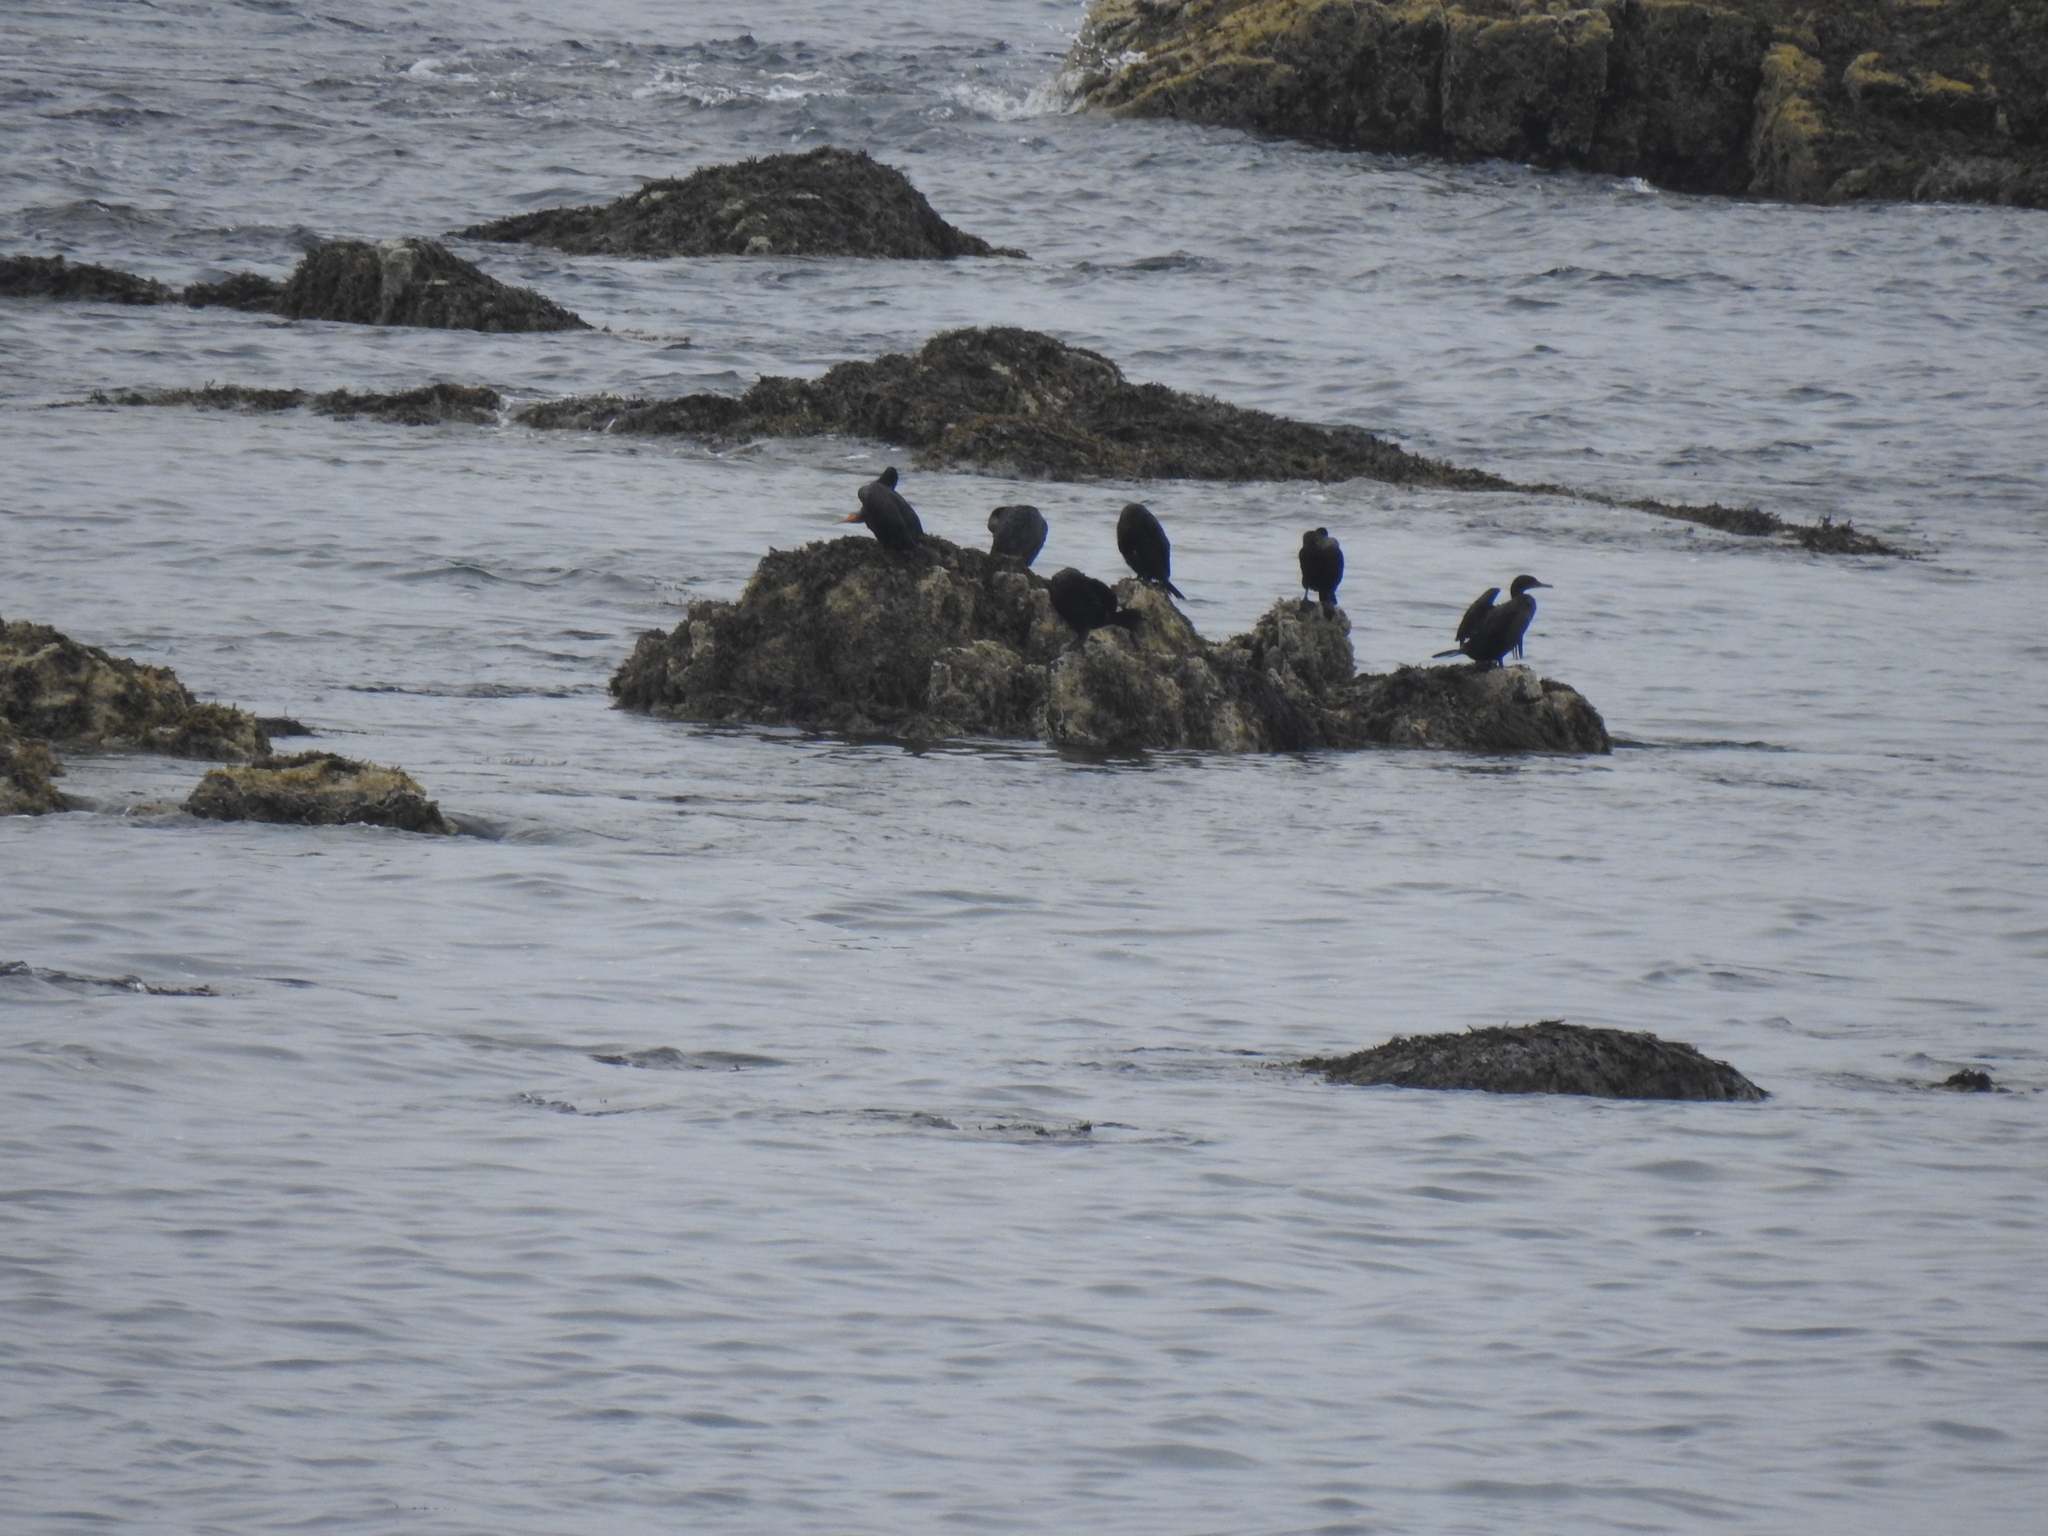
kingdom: Animalia
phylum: Chordata
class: Aves
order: Suliformes
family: Phalacrocoracidae
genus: Phalacrocorax
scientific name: Phalacrocorax auritus
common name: Double-crested cormorant
